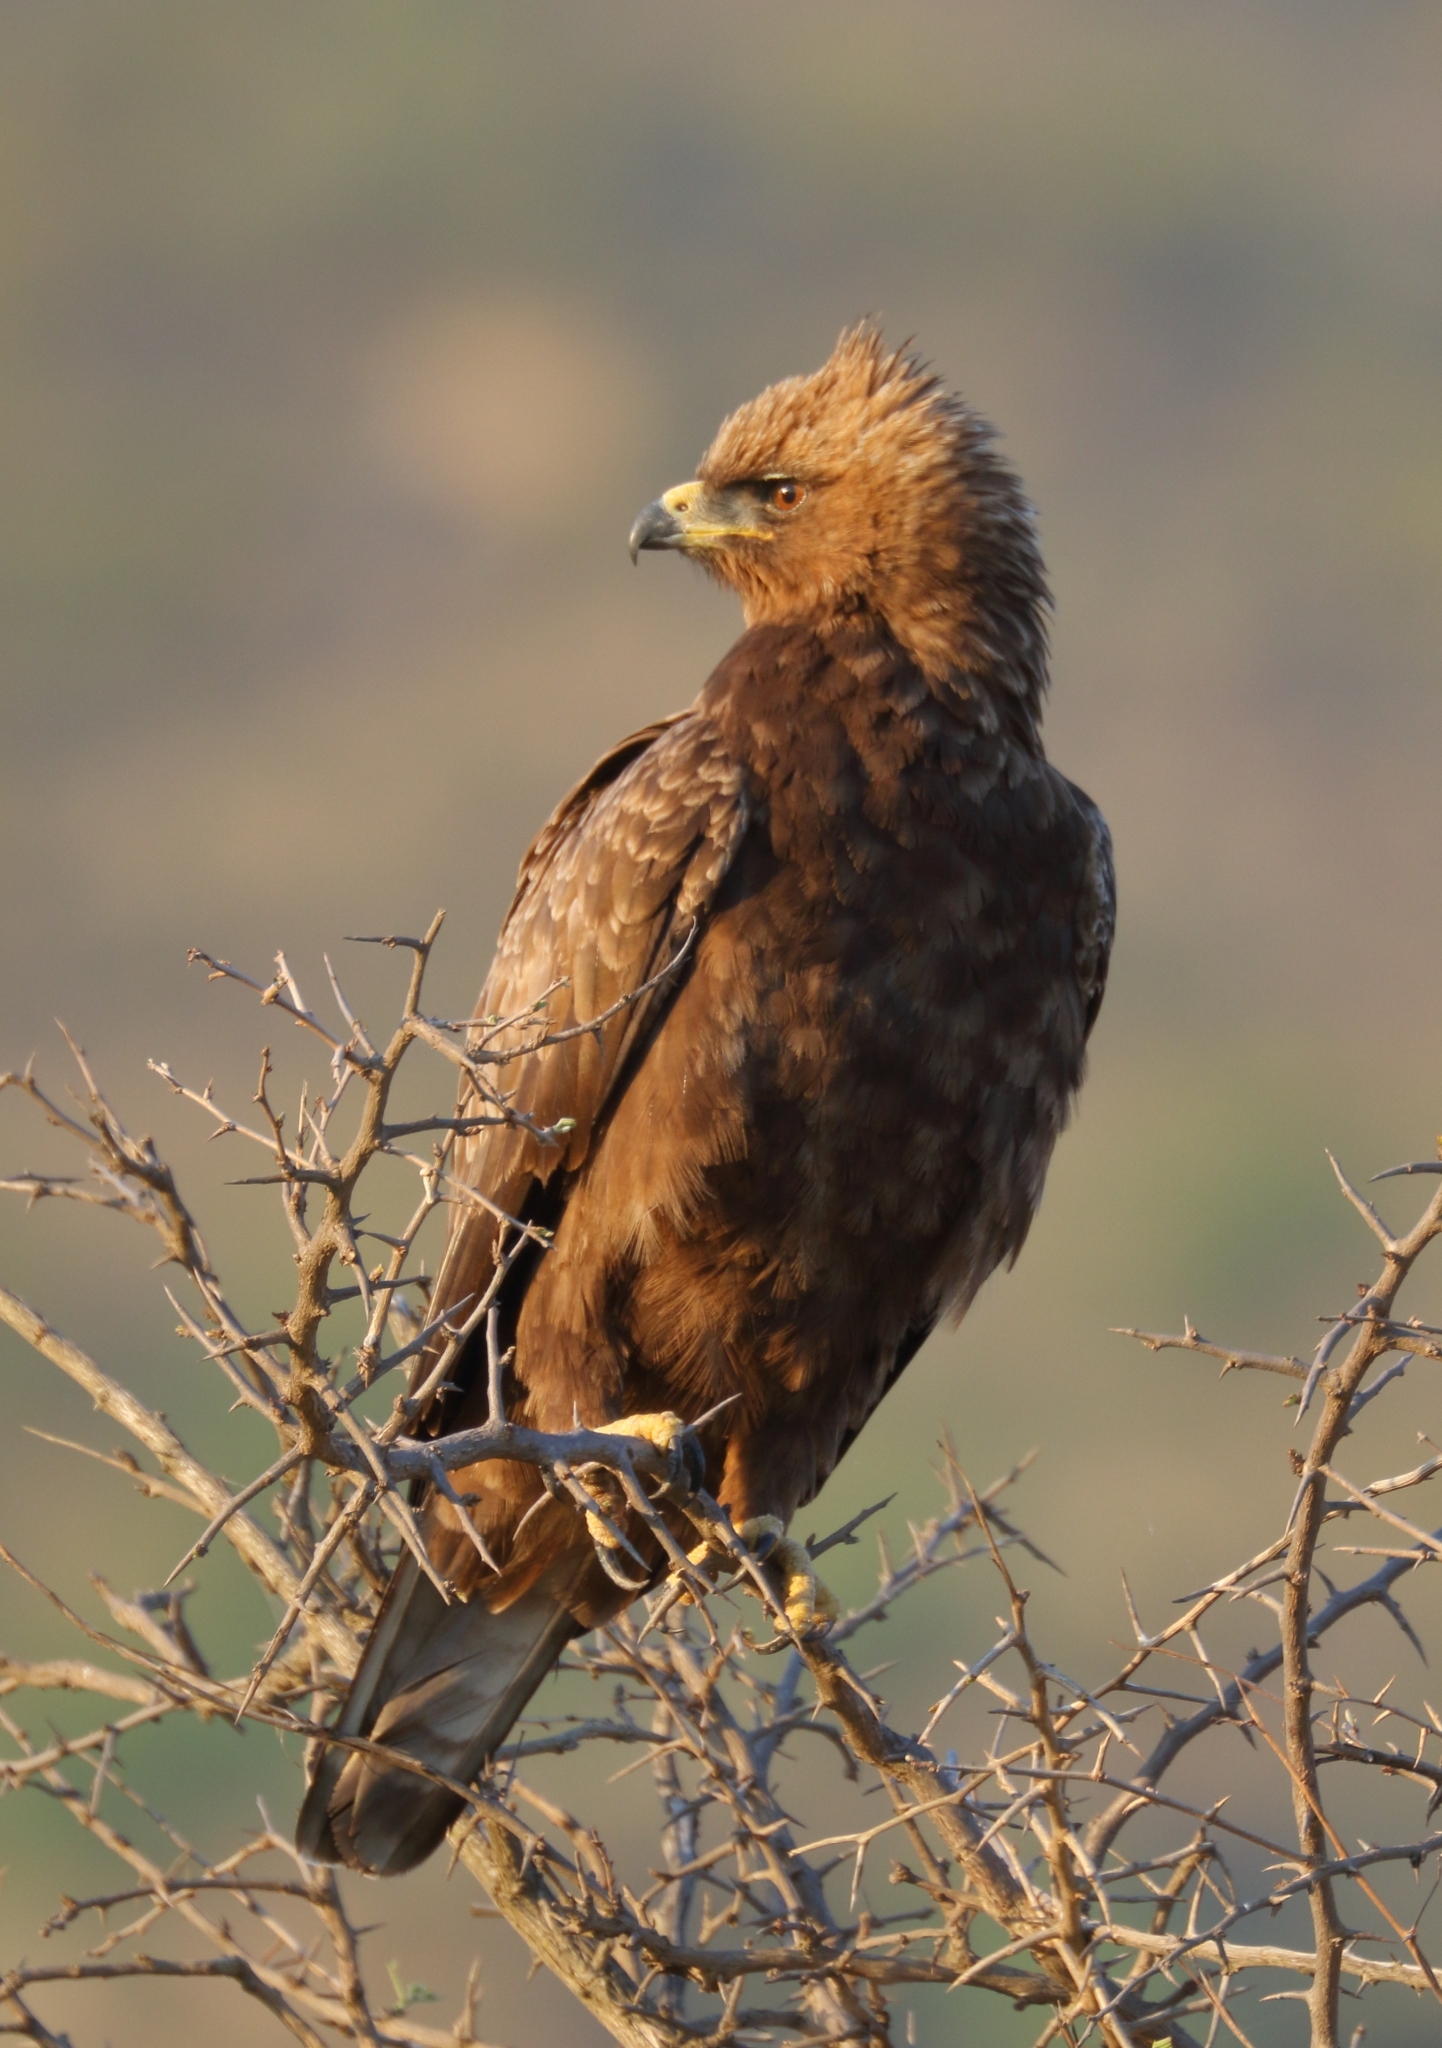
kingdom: Animalia
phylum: Chordata
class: Aves
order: Accipitriformes
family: Accipitridae
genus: Hieraaetus
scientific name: Hieraaetus wahlbergi
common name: Wahlberg's eagle
